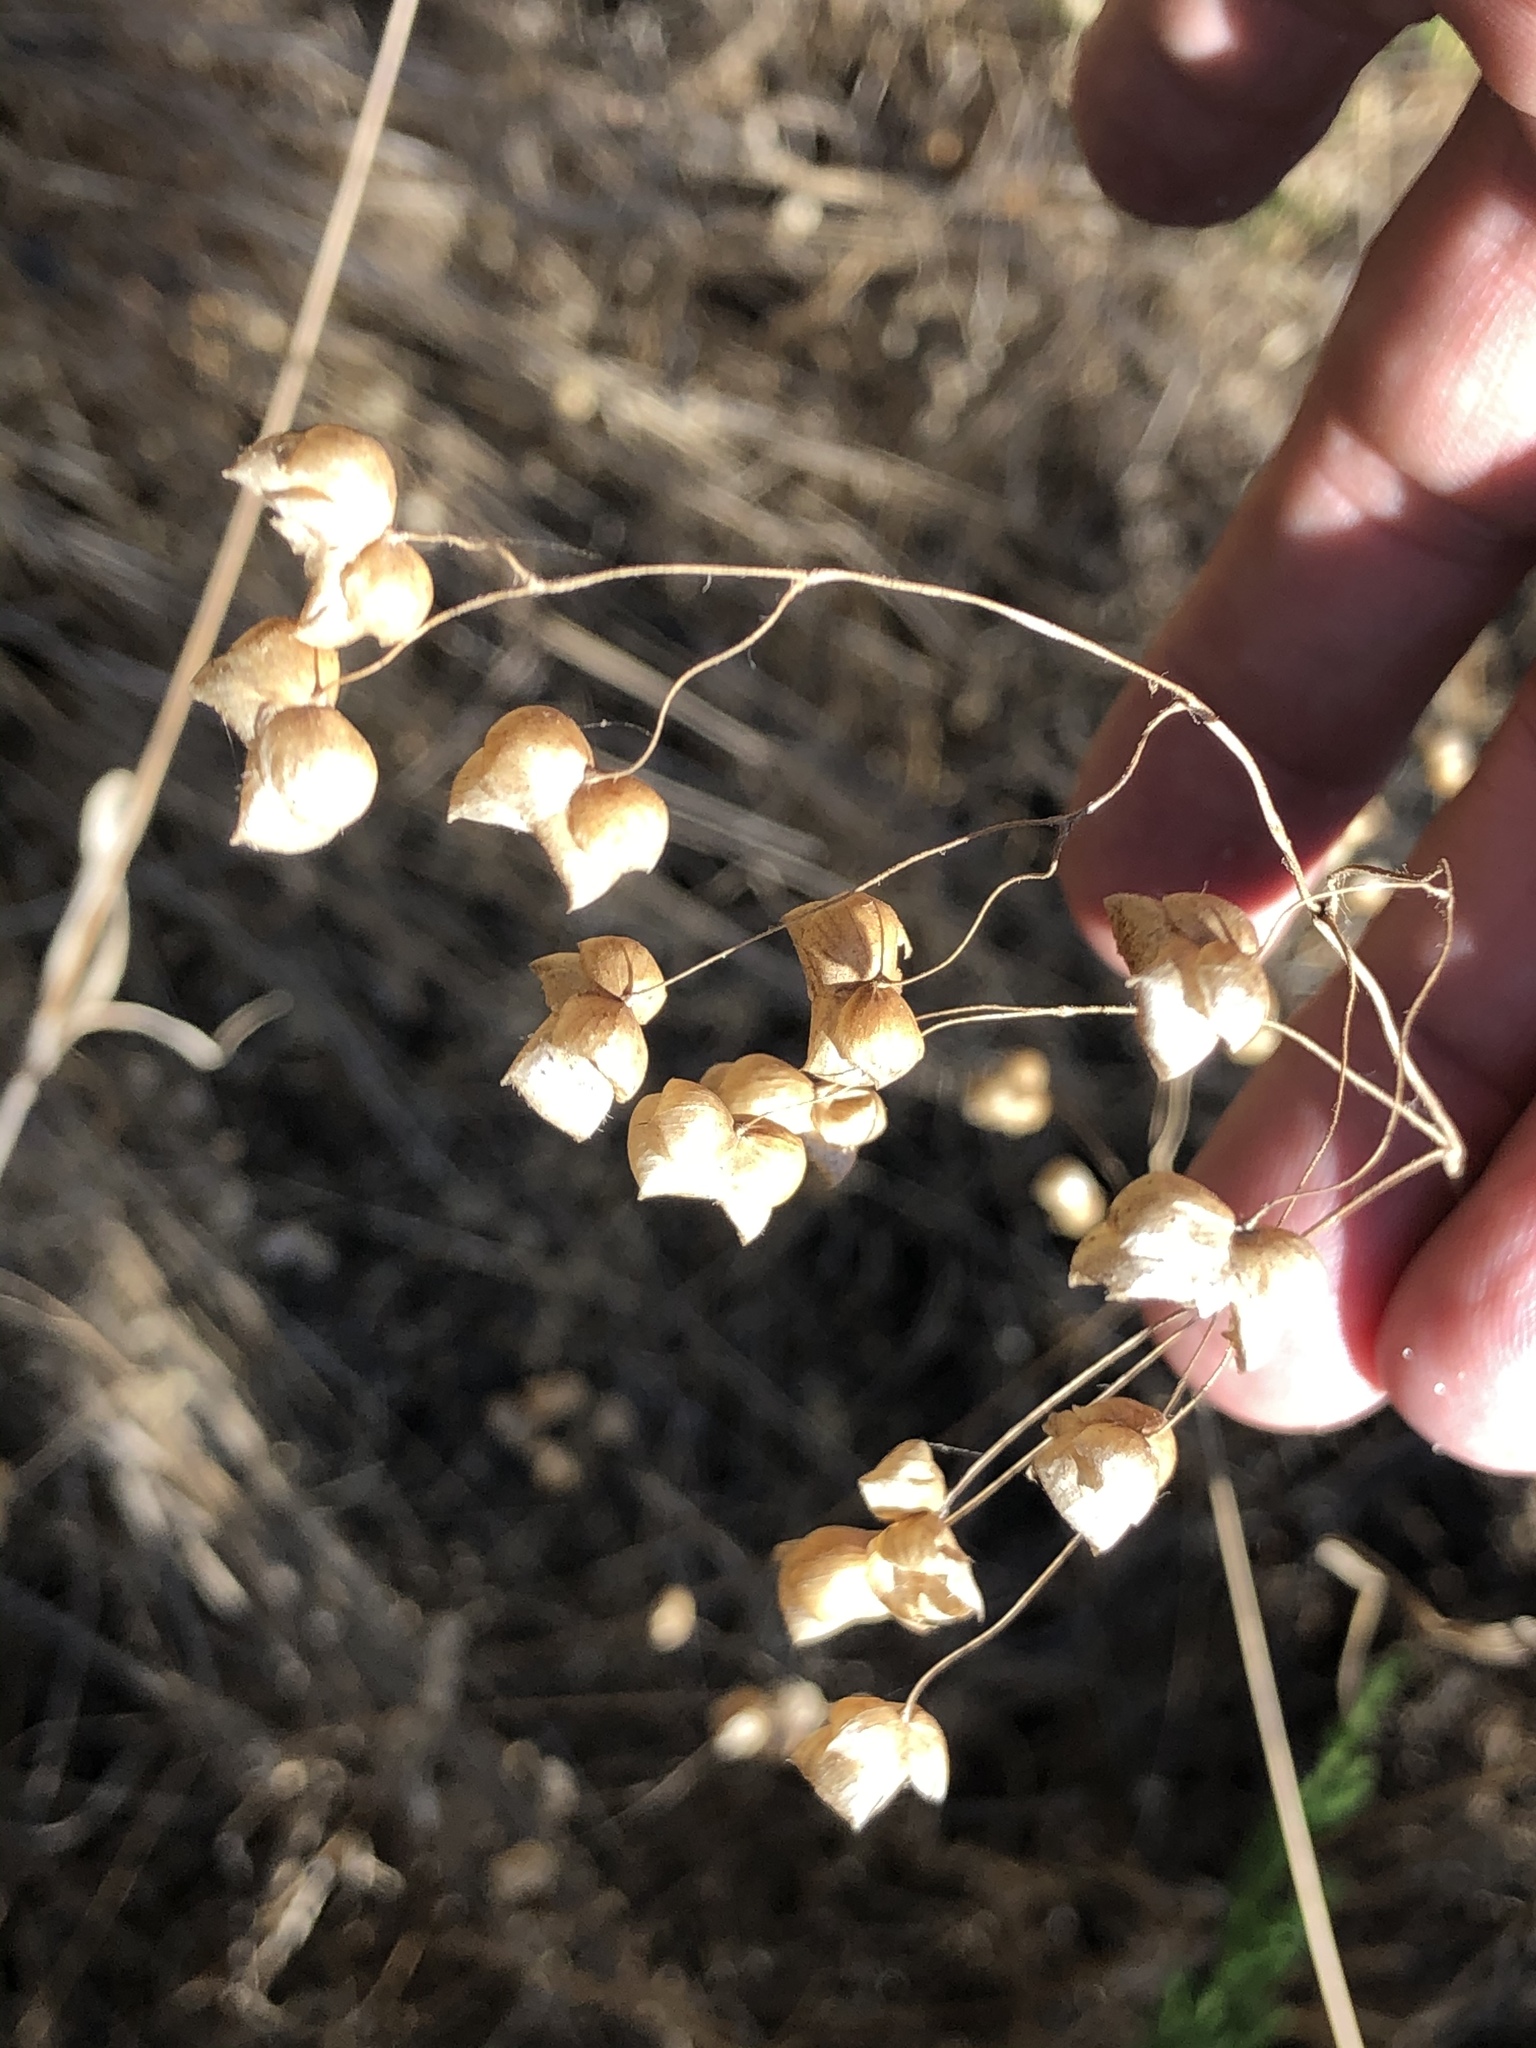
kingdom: Plantae
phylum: Tracheophyta
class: Liliopsida
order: Poales
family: Poaceae
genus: Briza
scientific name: Briza maxima
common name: Big quakinggrass
